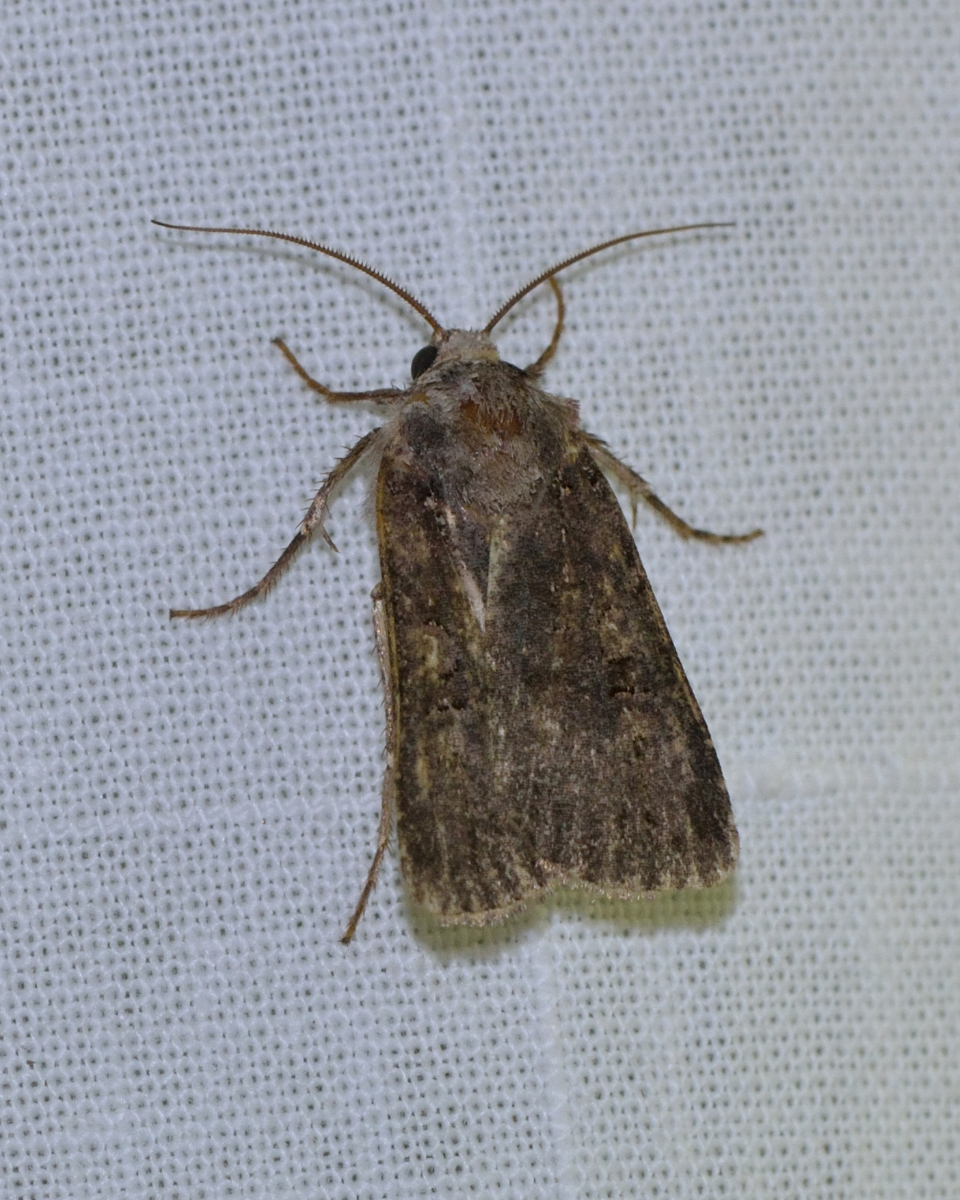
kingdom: Animalia
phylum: Arthropoda
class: Insecta
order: Lepidoptera
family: Noctuidae
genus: Euxoa
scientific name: Euxoa nigricans
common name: Garden dart
